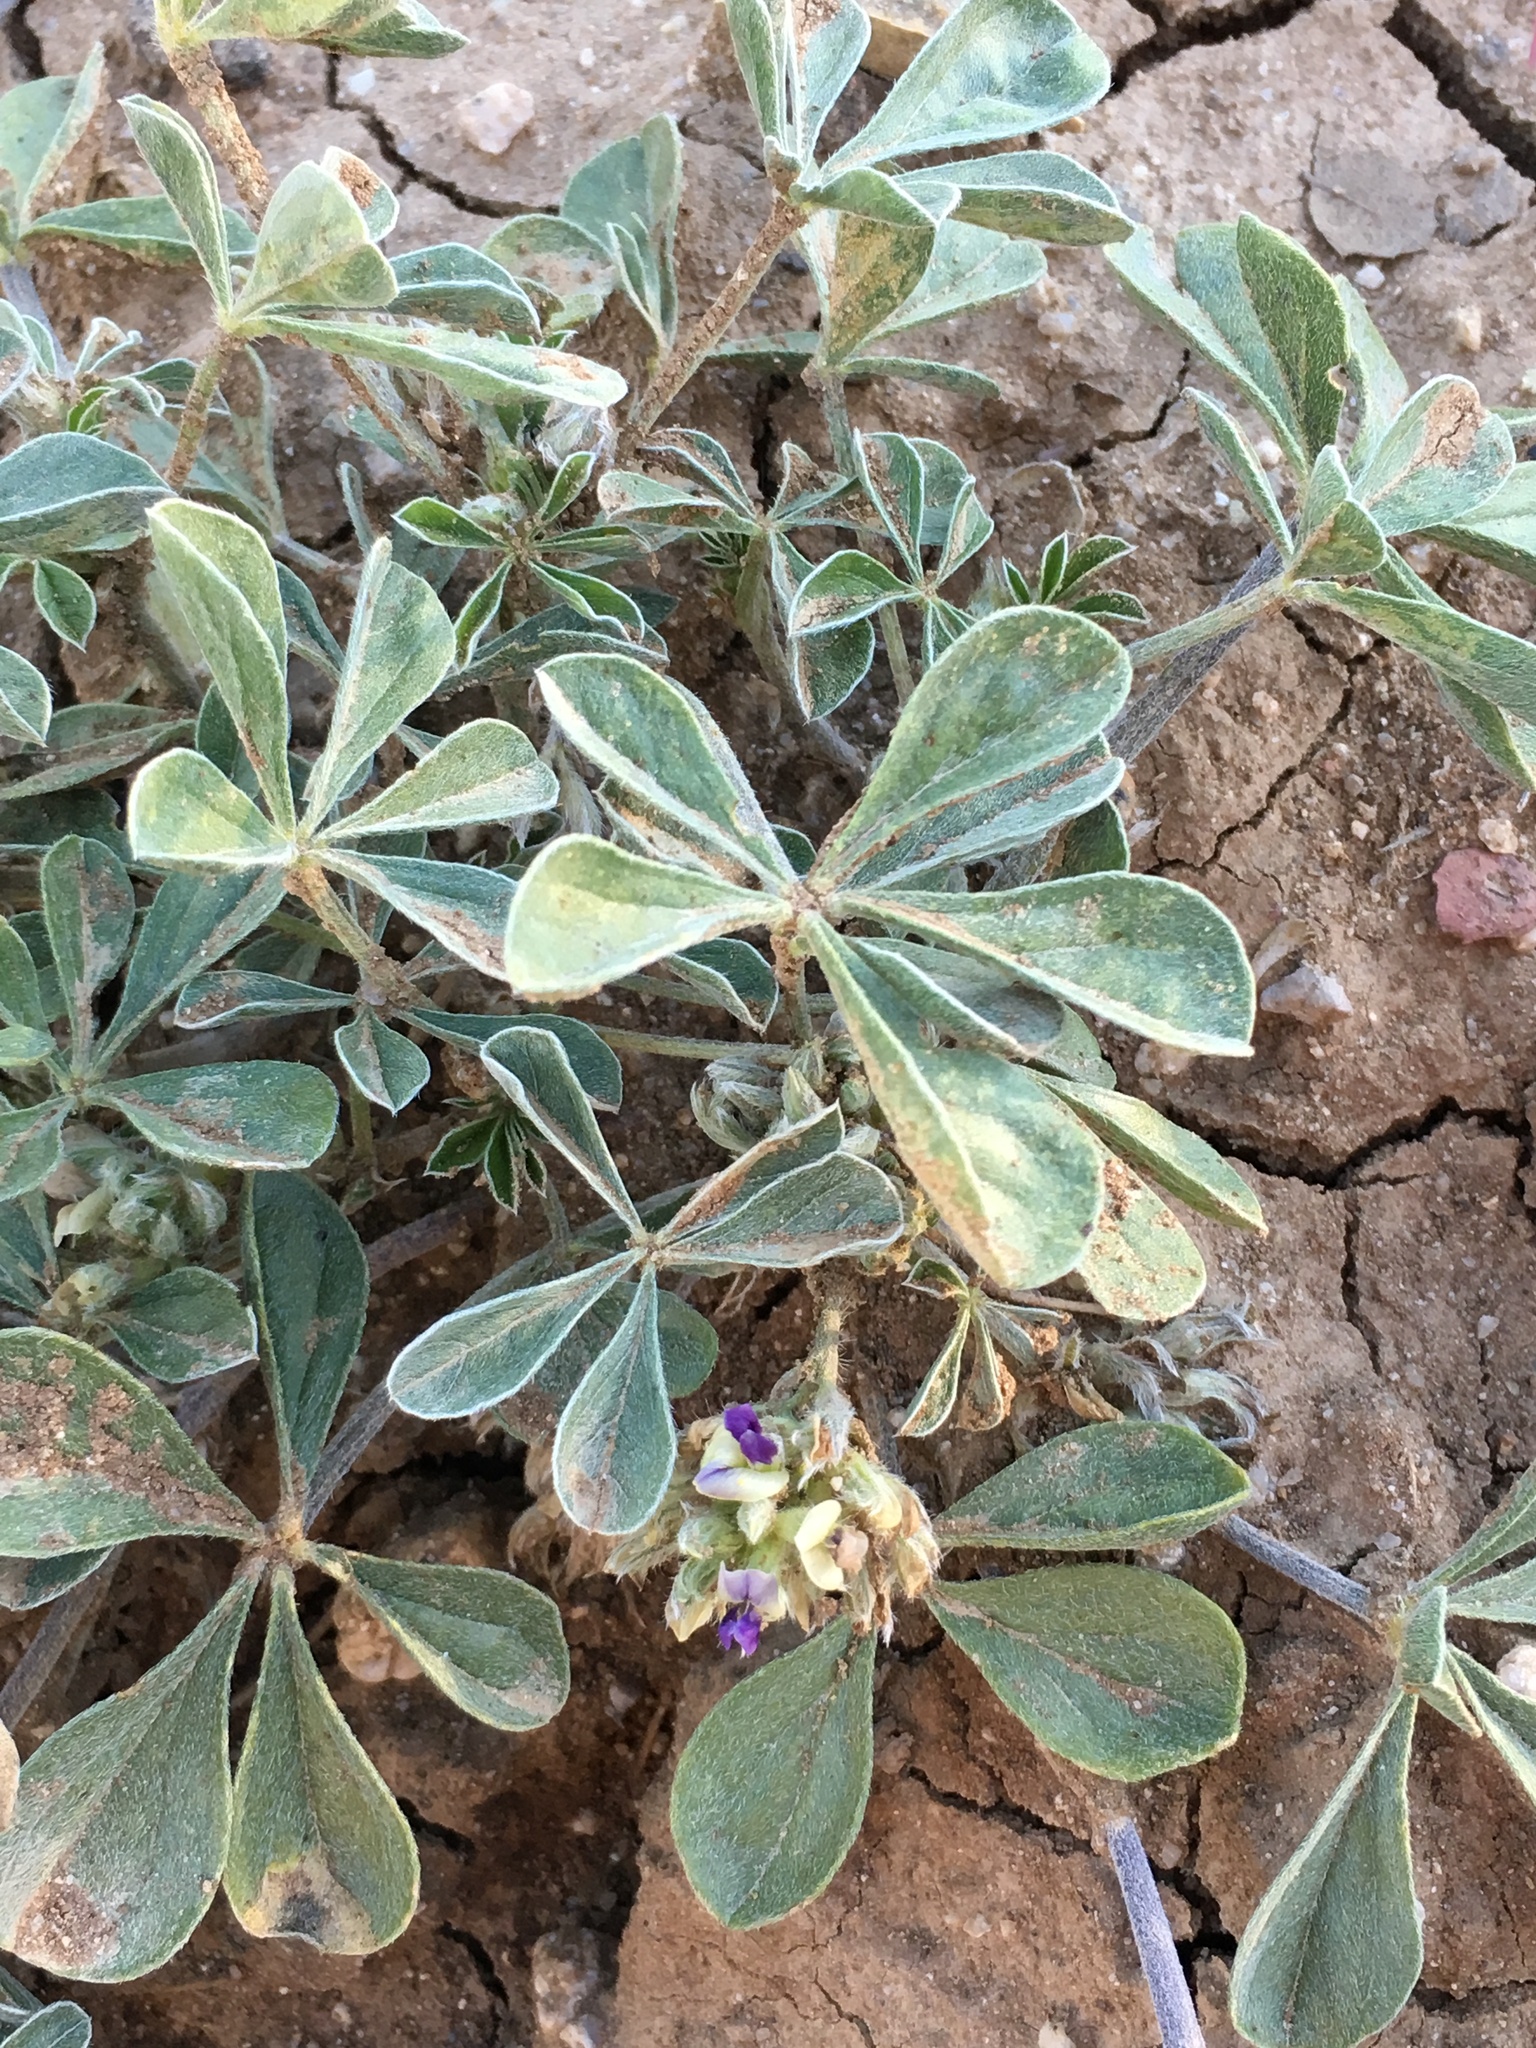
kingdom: Plantae
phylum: Tracheophyta
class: Magnoliopsida
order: Fabales
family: Fabaceae
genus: Pediomelum
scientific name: Pediomelum californicum
